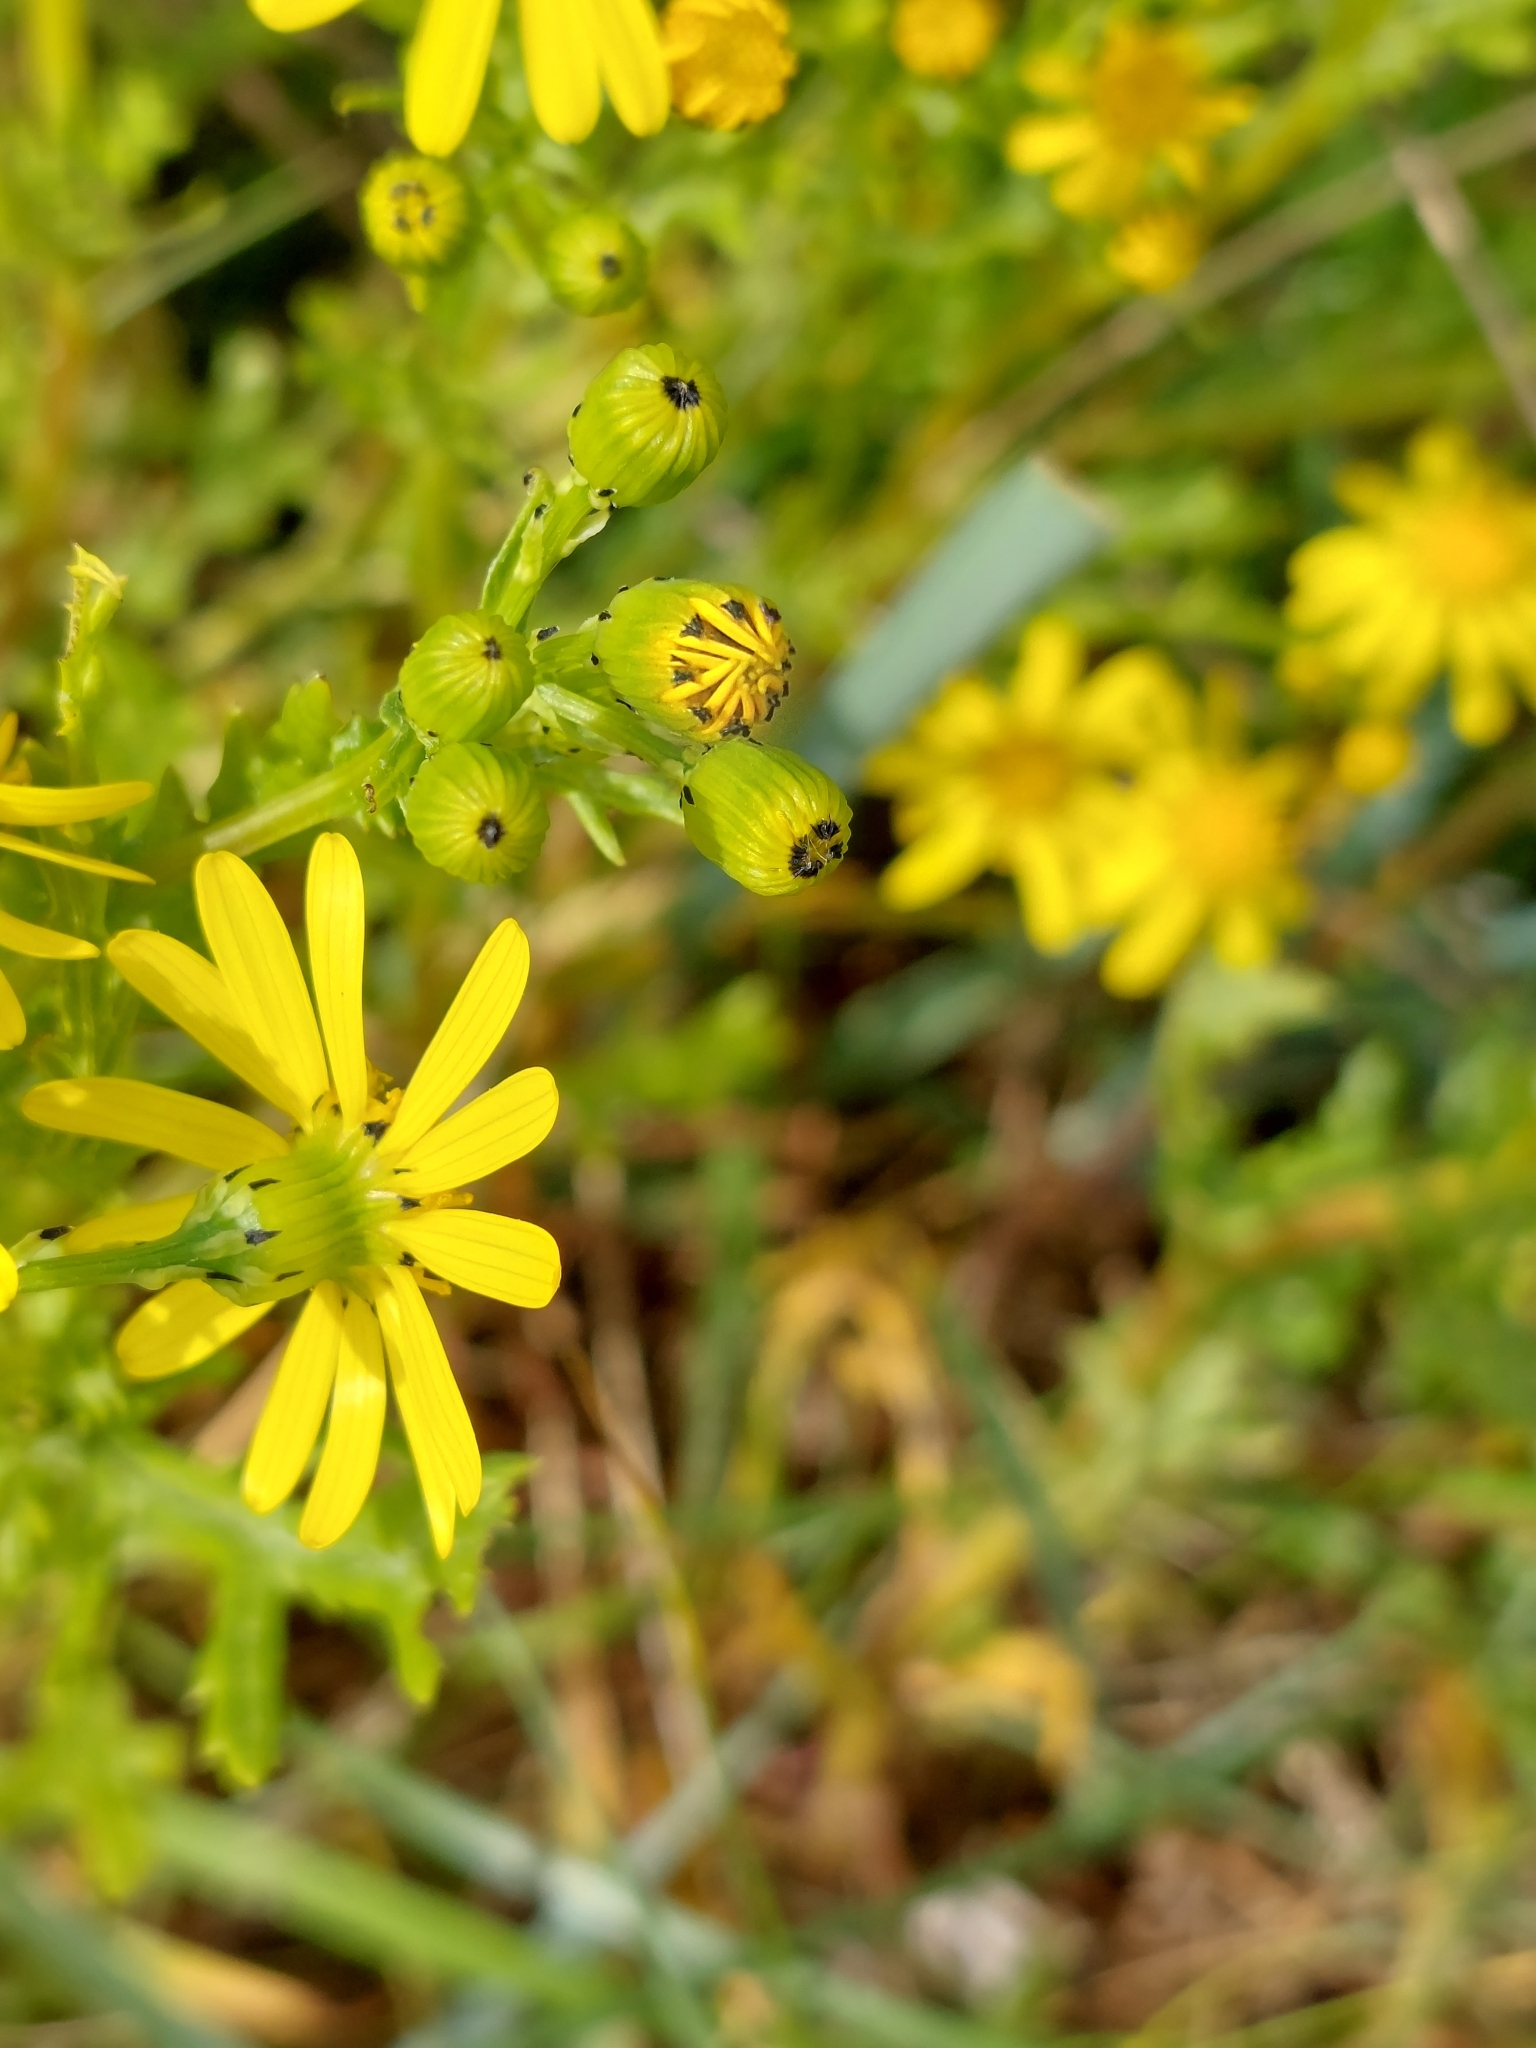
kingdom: Plantae
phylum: Tracheophyta
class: Magnoliopsida
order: Asterales
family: Asteraceae
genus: Senecio
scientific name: Senecio squalidus
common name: Oxford ragwort
